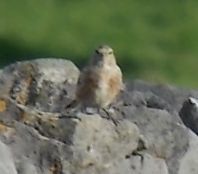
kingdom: Animalia
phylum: Chordata
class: Aves
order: Passeriformes
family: Fringillidae
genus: Linaria
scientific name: Linaria cannabina
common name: Common linnet
